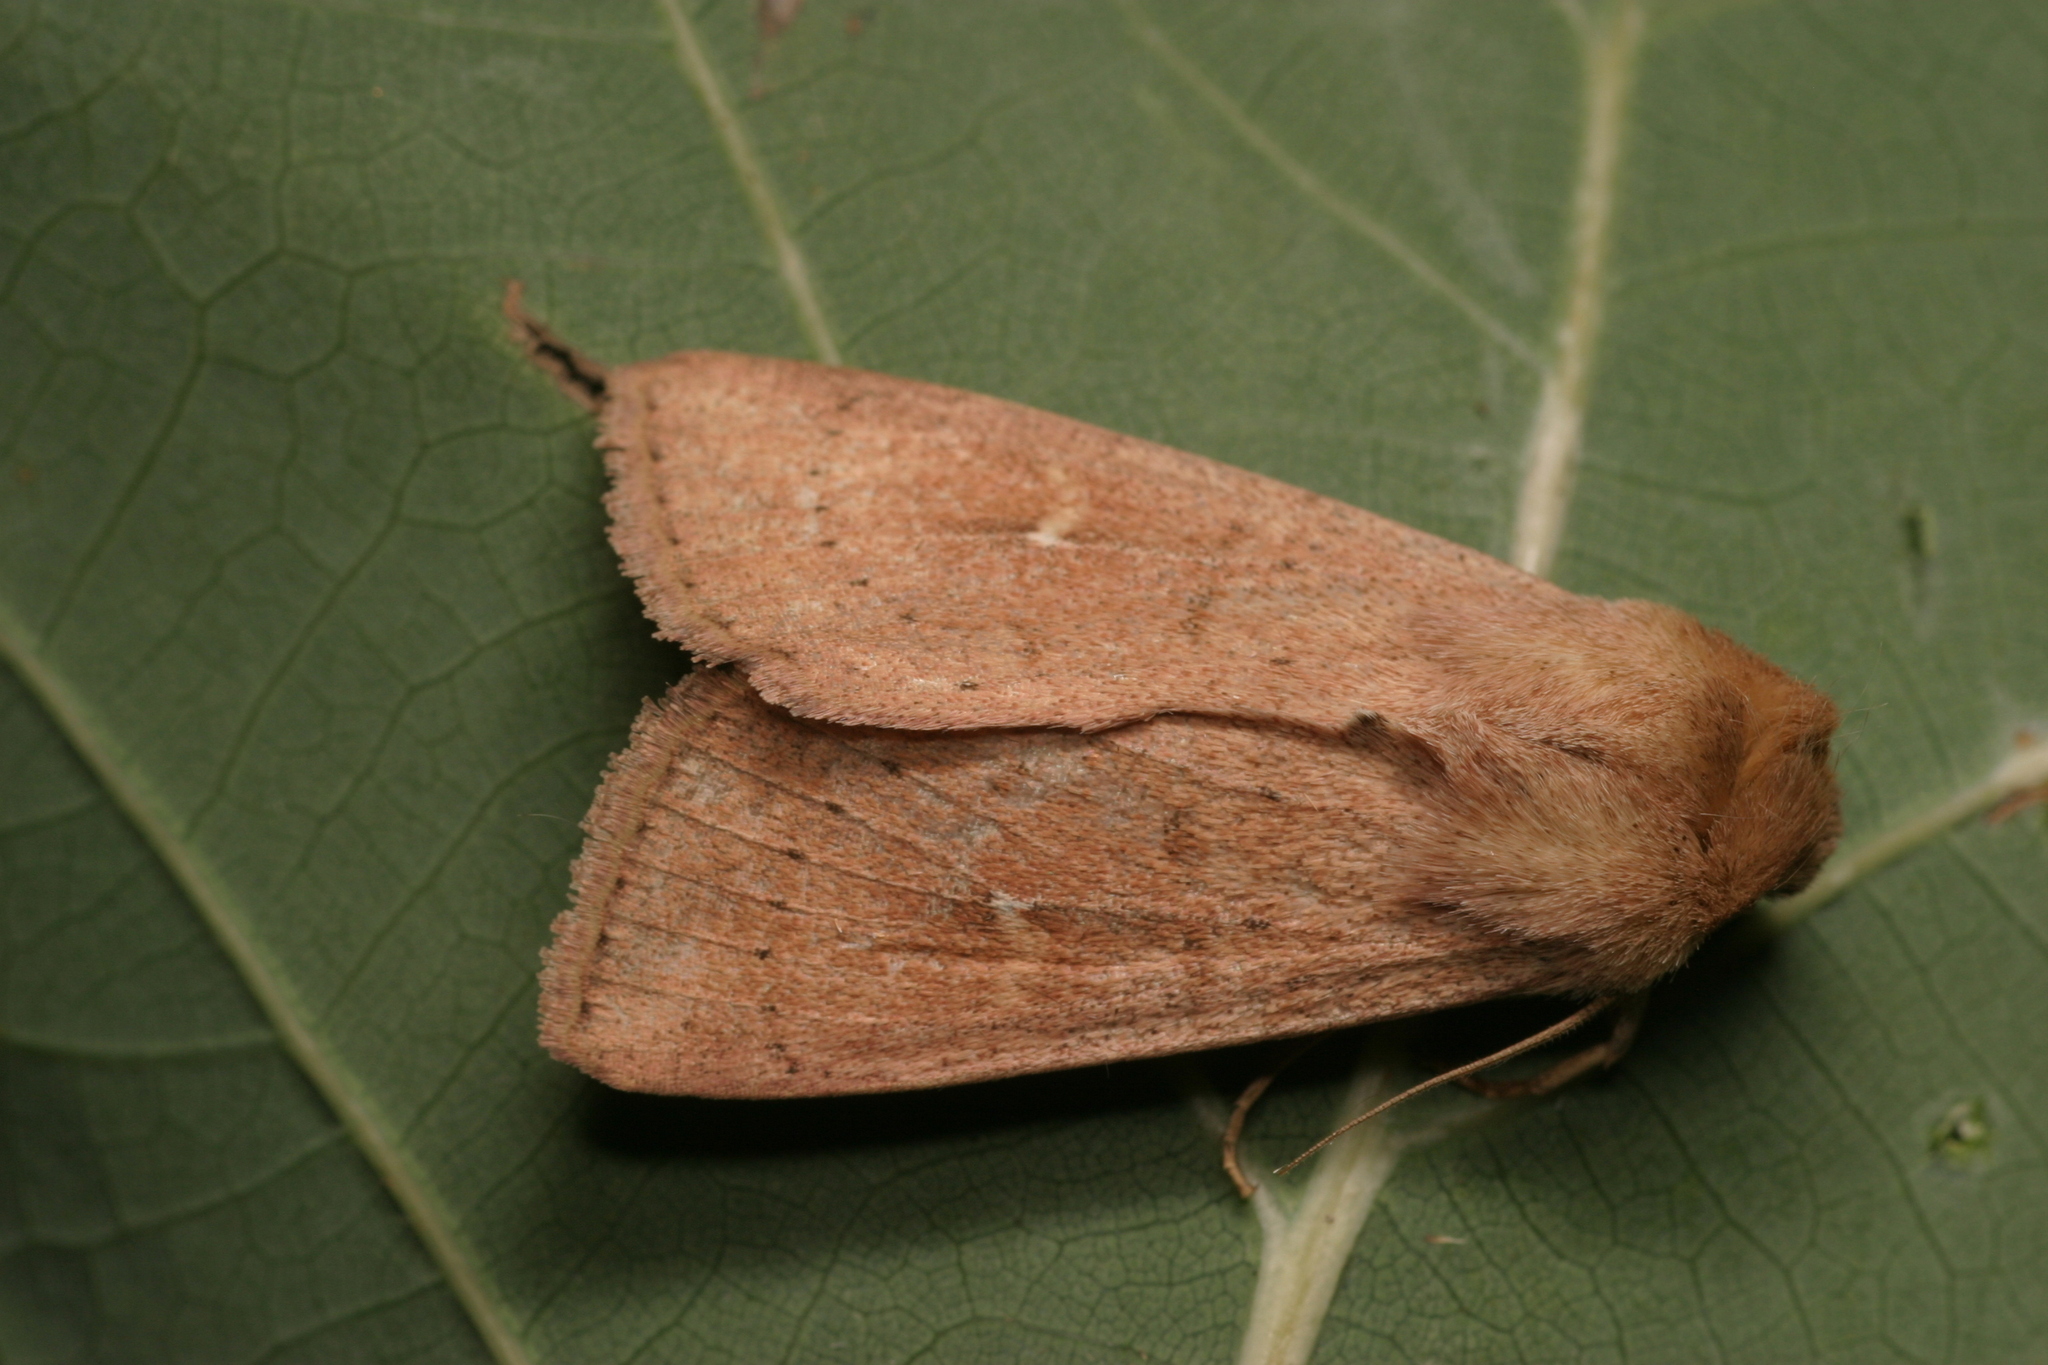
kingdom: Animalia
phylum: Arthropoda
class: Insecta
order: Lepidoptera
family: Noctuidae
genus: Mythimna
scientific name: Mythimna ferrago
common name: Clay
